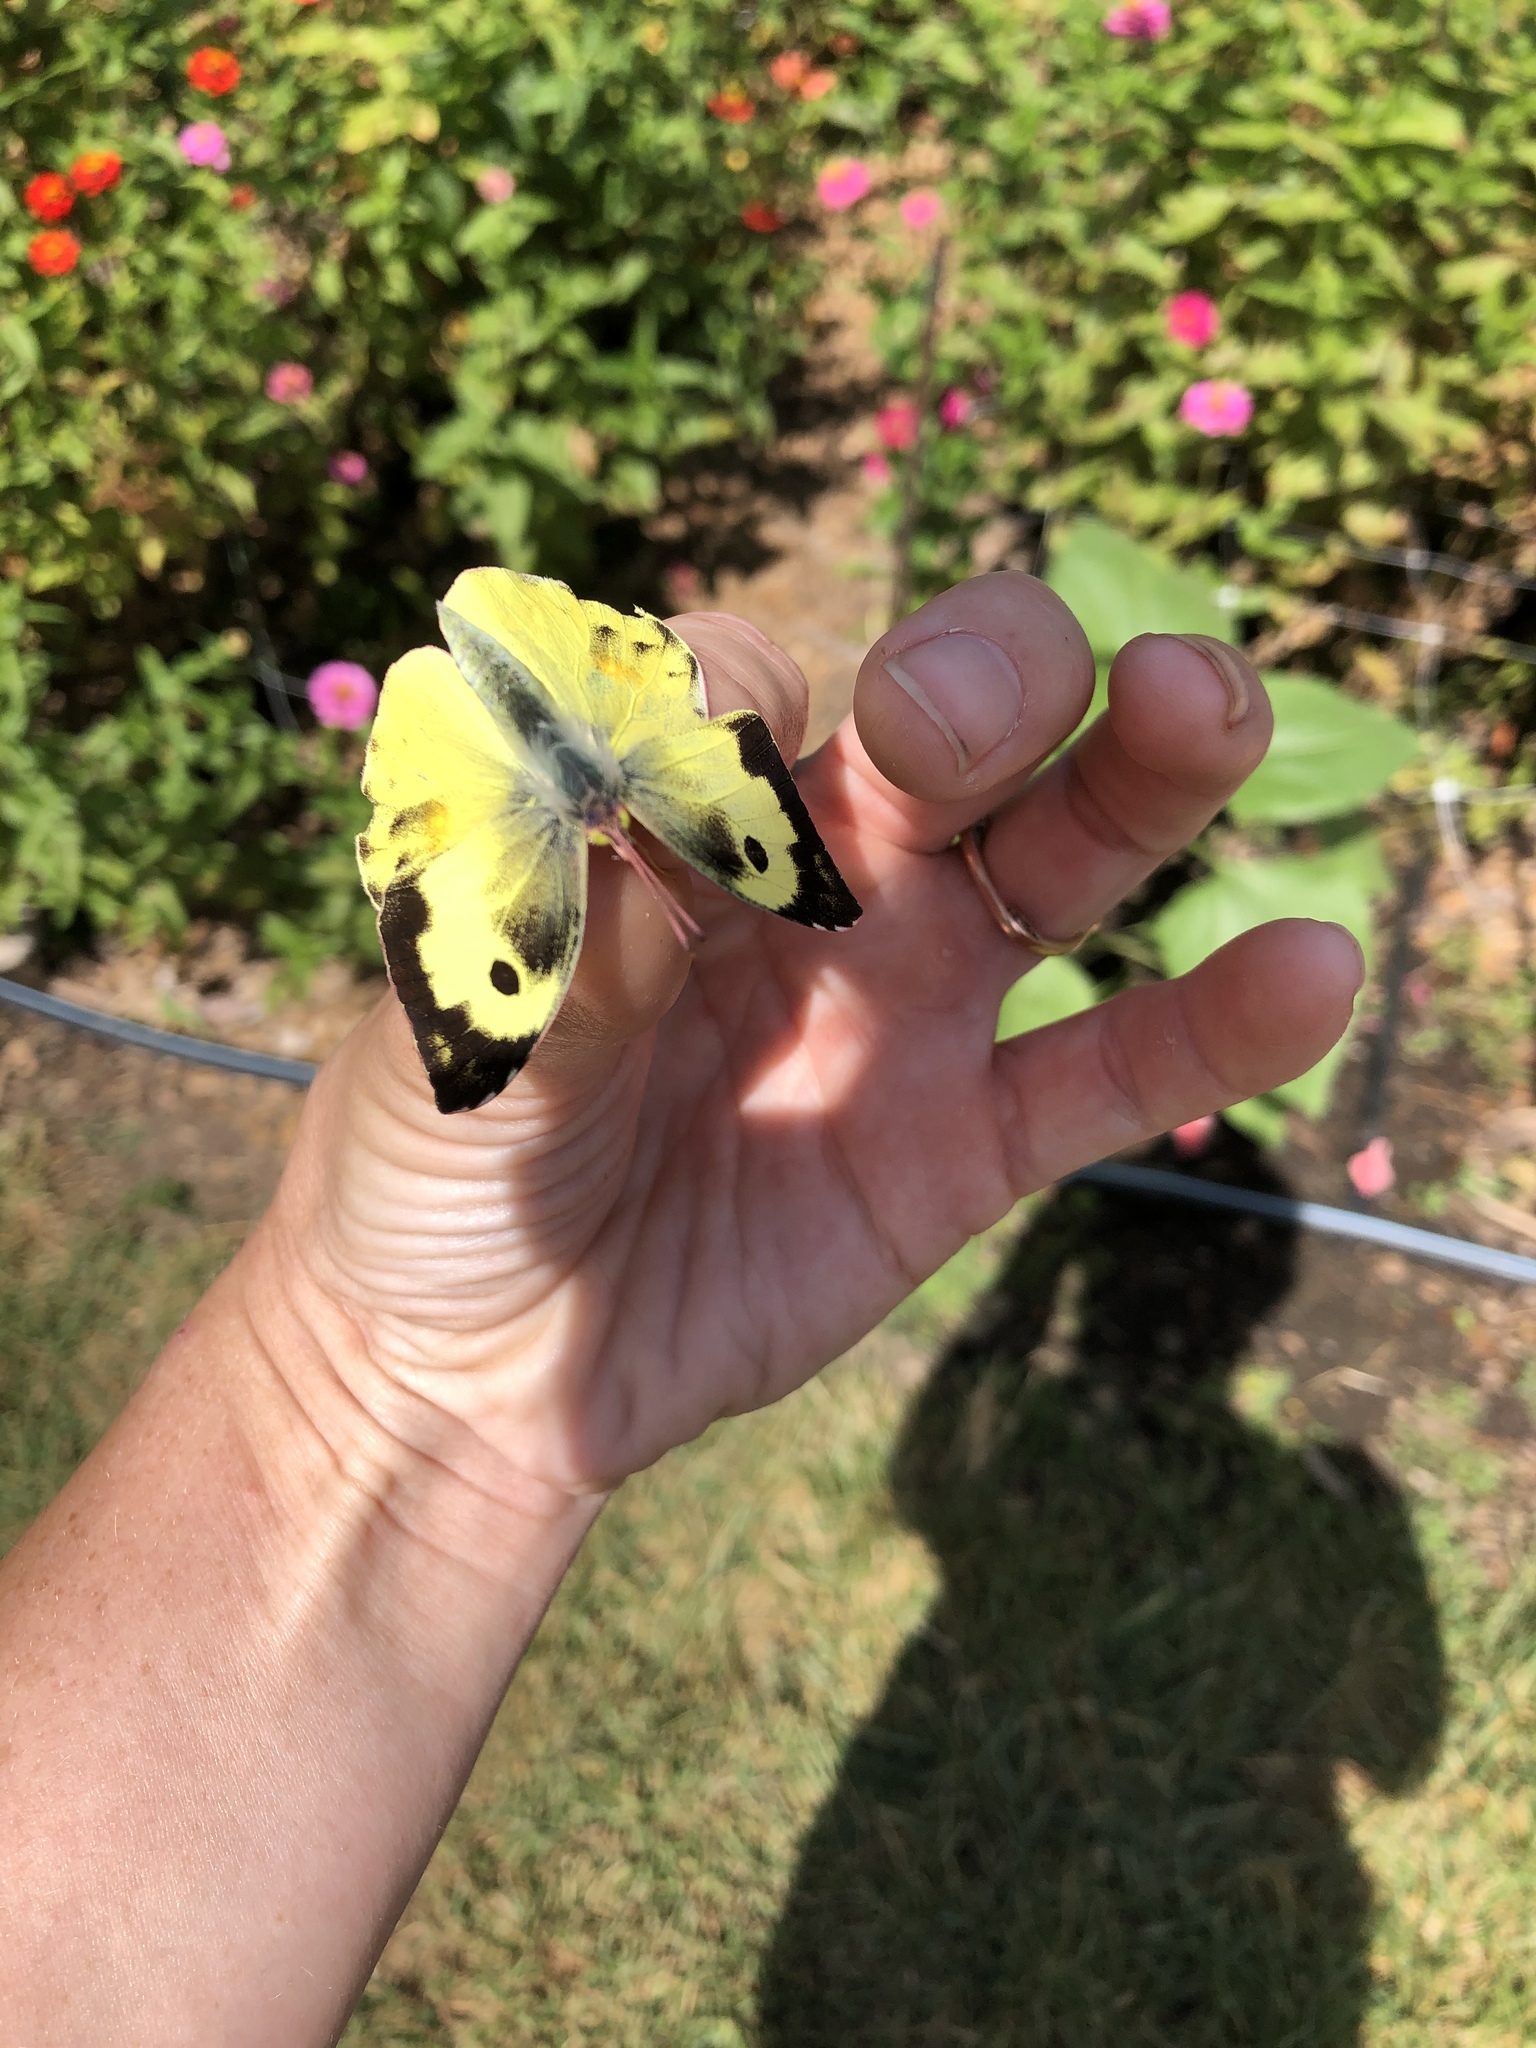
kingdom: Animalia
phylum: Arthropoda
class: Insecta
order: Lepidoptera
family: Pieridae
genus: Zerene
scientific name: Zerene cesonia
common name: Southern dogface
